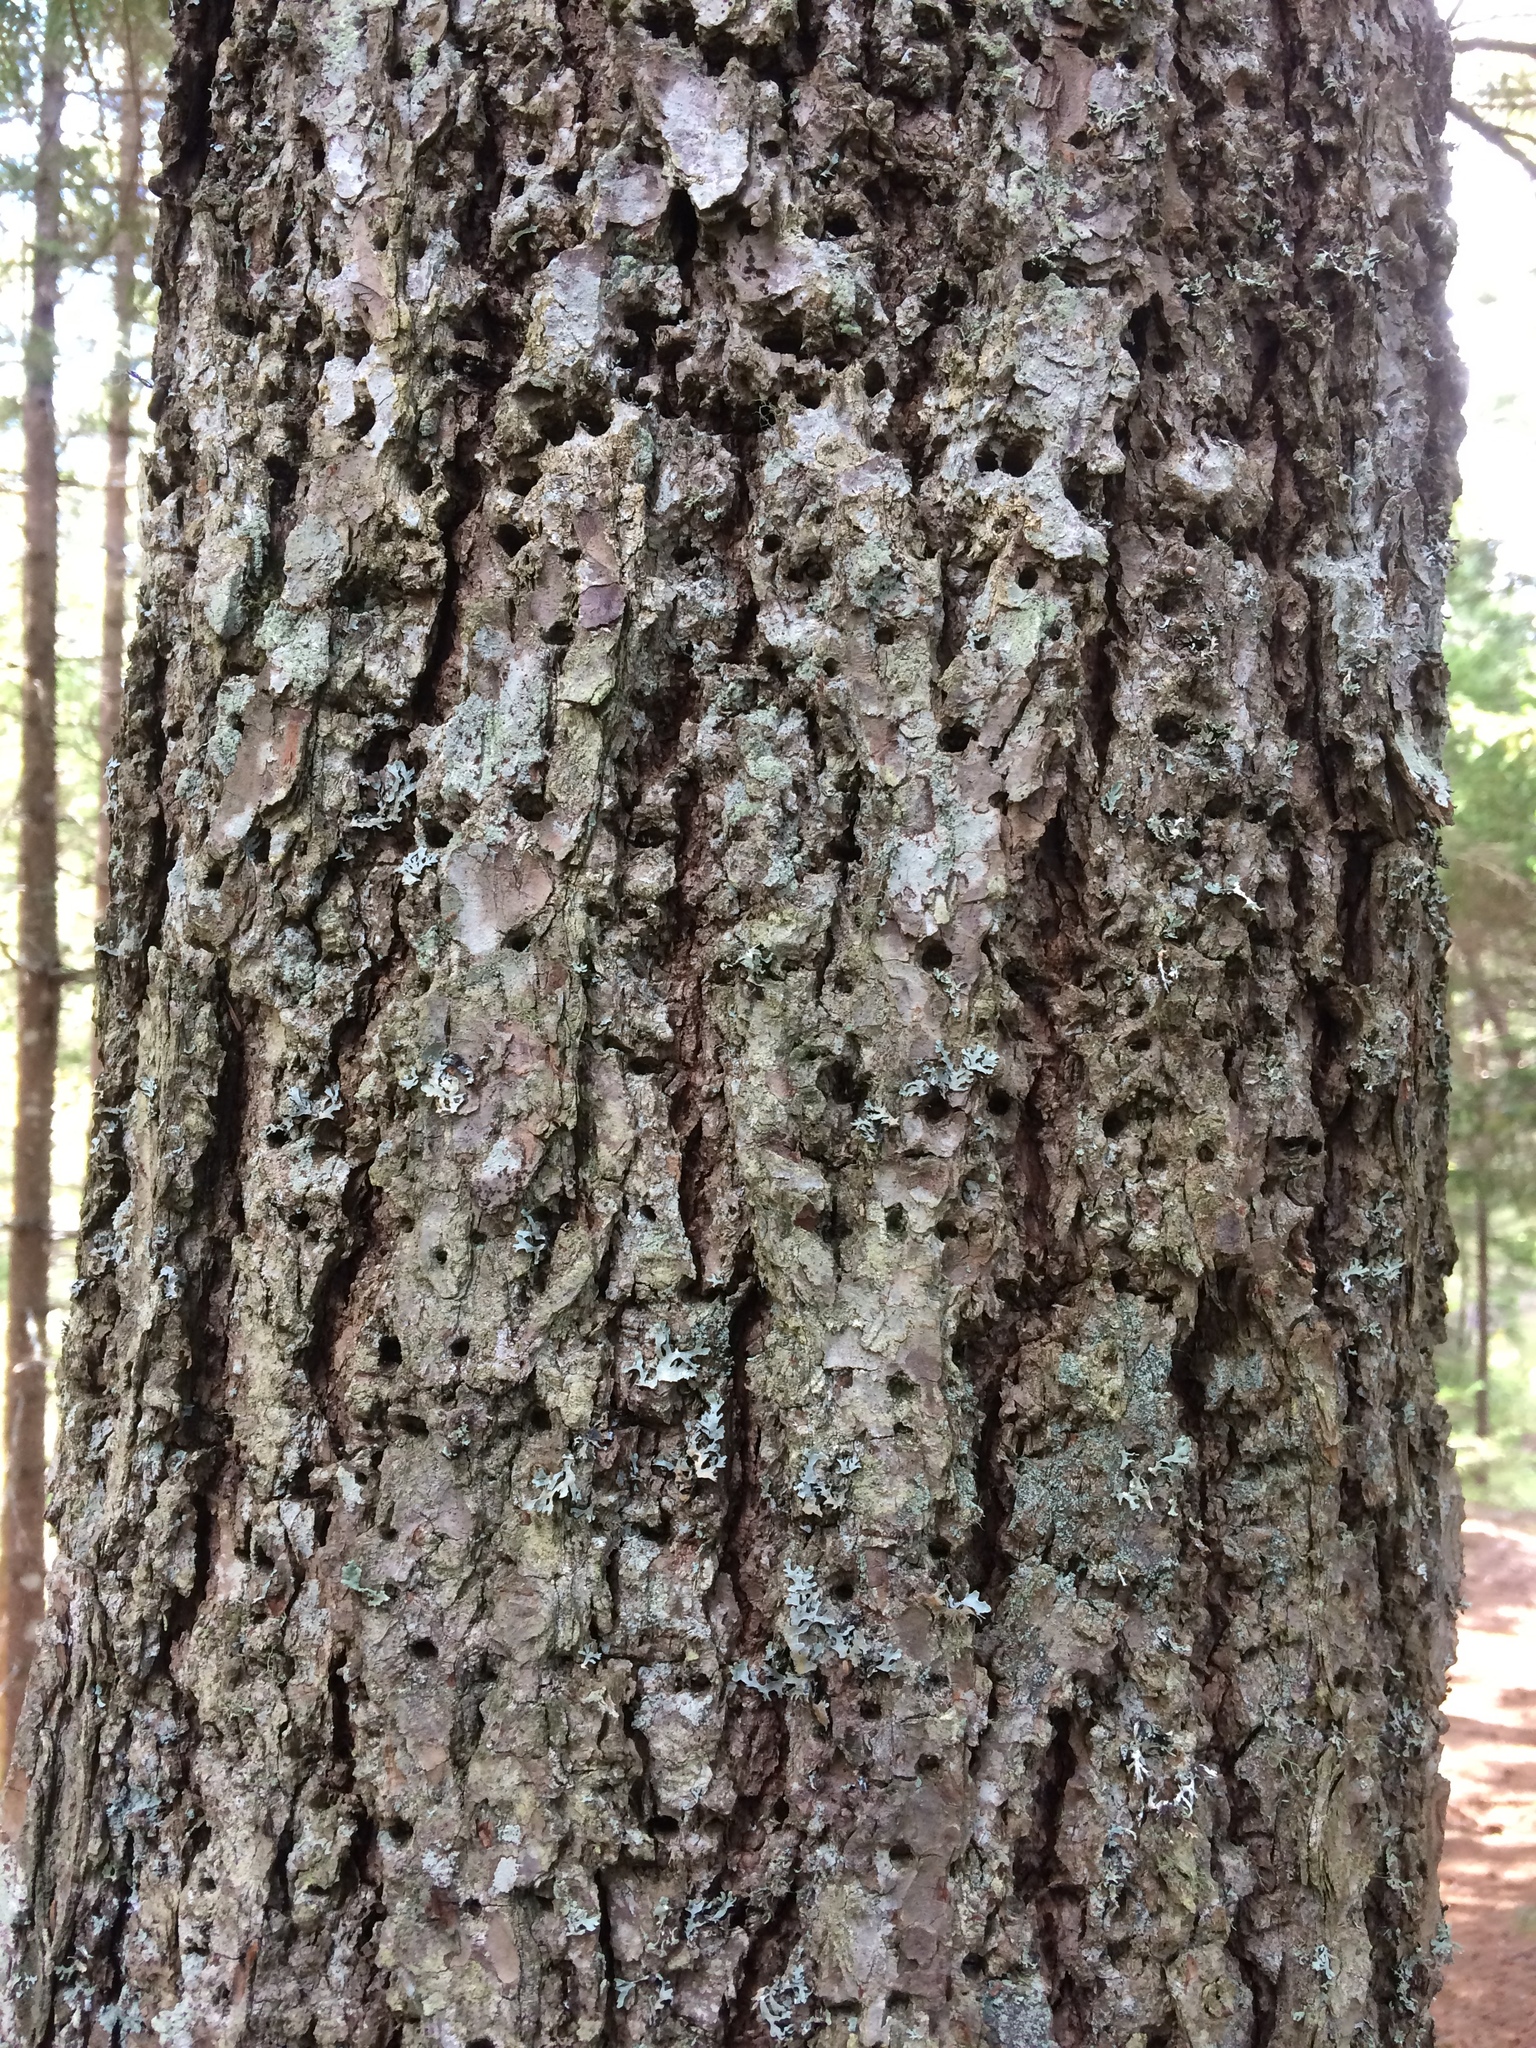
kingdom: Animalia
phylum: Chordata
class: Aves
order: Piciformes
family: Picidae
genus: Sphyrapicus
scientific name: Sphyrapicus varius
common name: Yellow-bellied sapsucker
